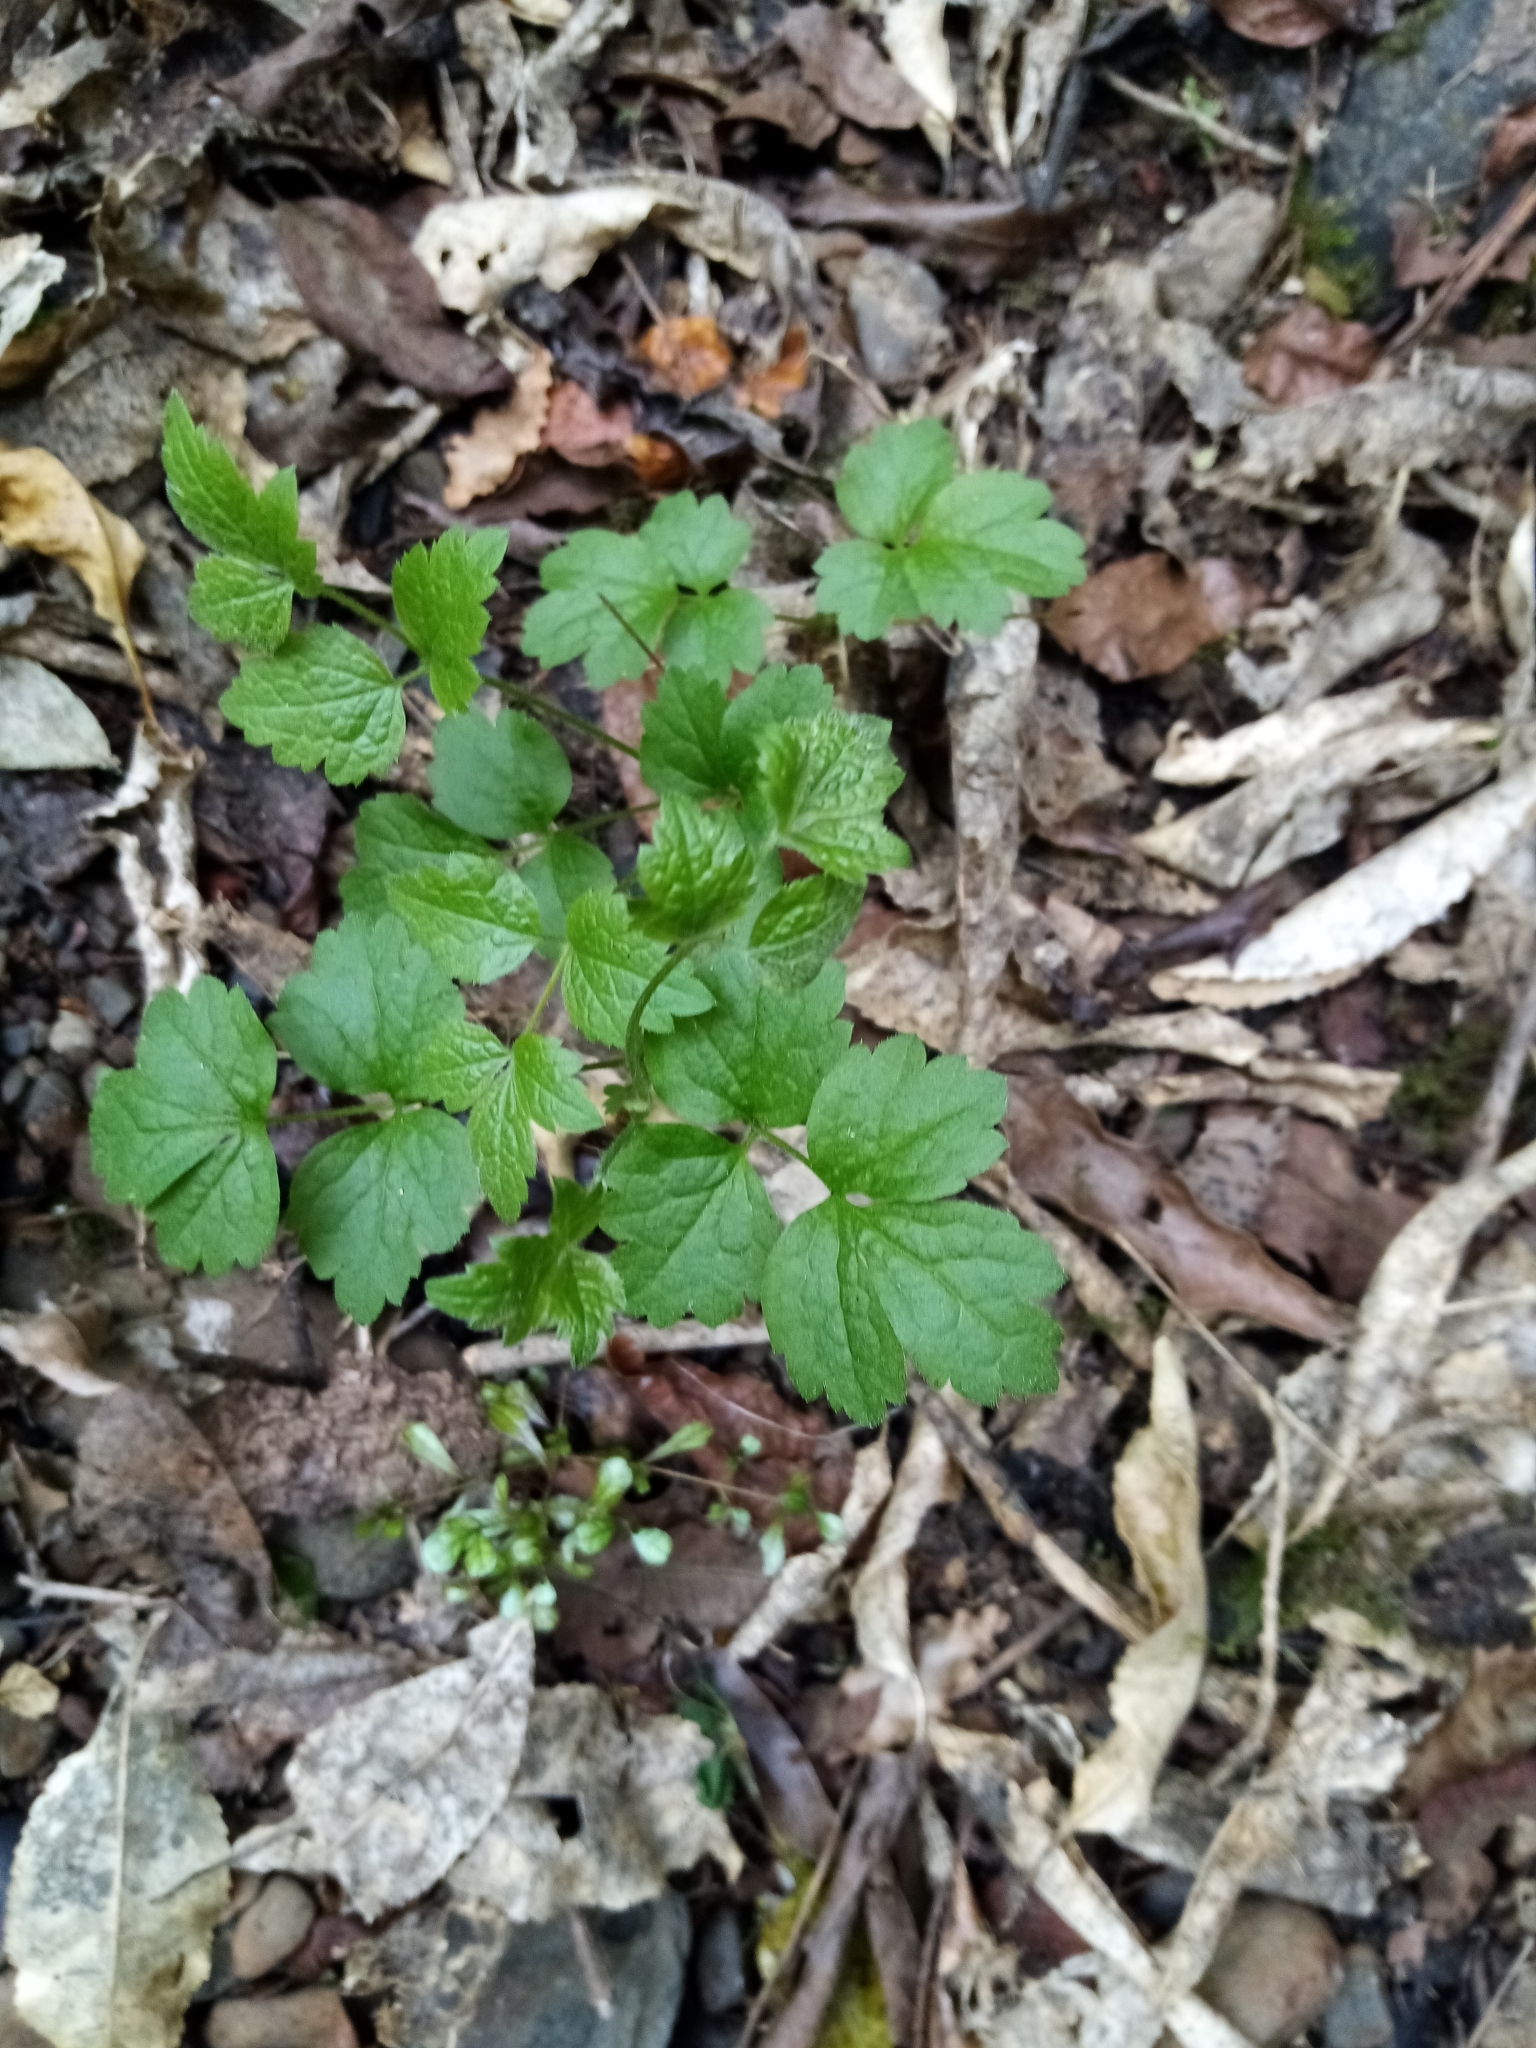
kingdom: Plantae
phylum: Tracheophyta
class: Magnoliopsida
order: Ranunculales
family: Ranunculaceae
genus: Clematis
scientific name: Clematis vitalba
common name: Evergreen clematis
